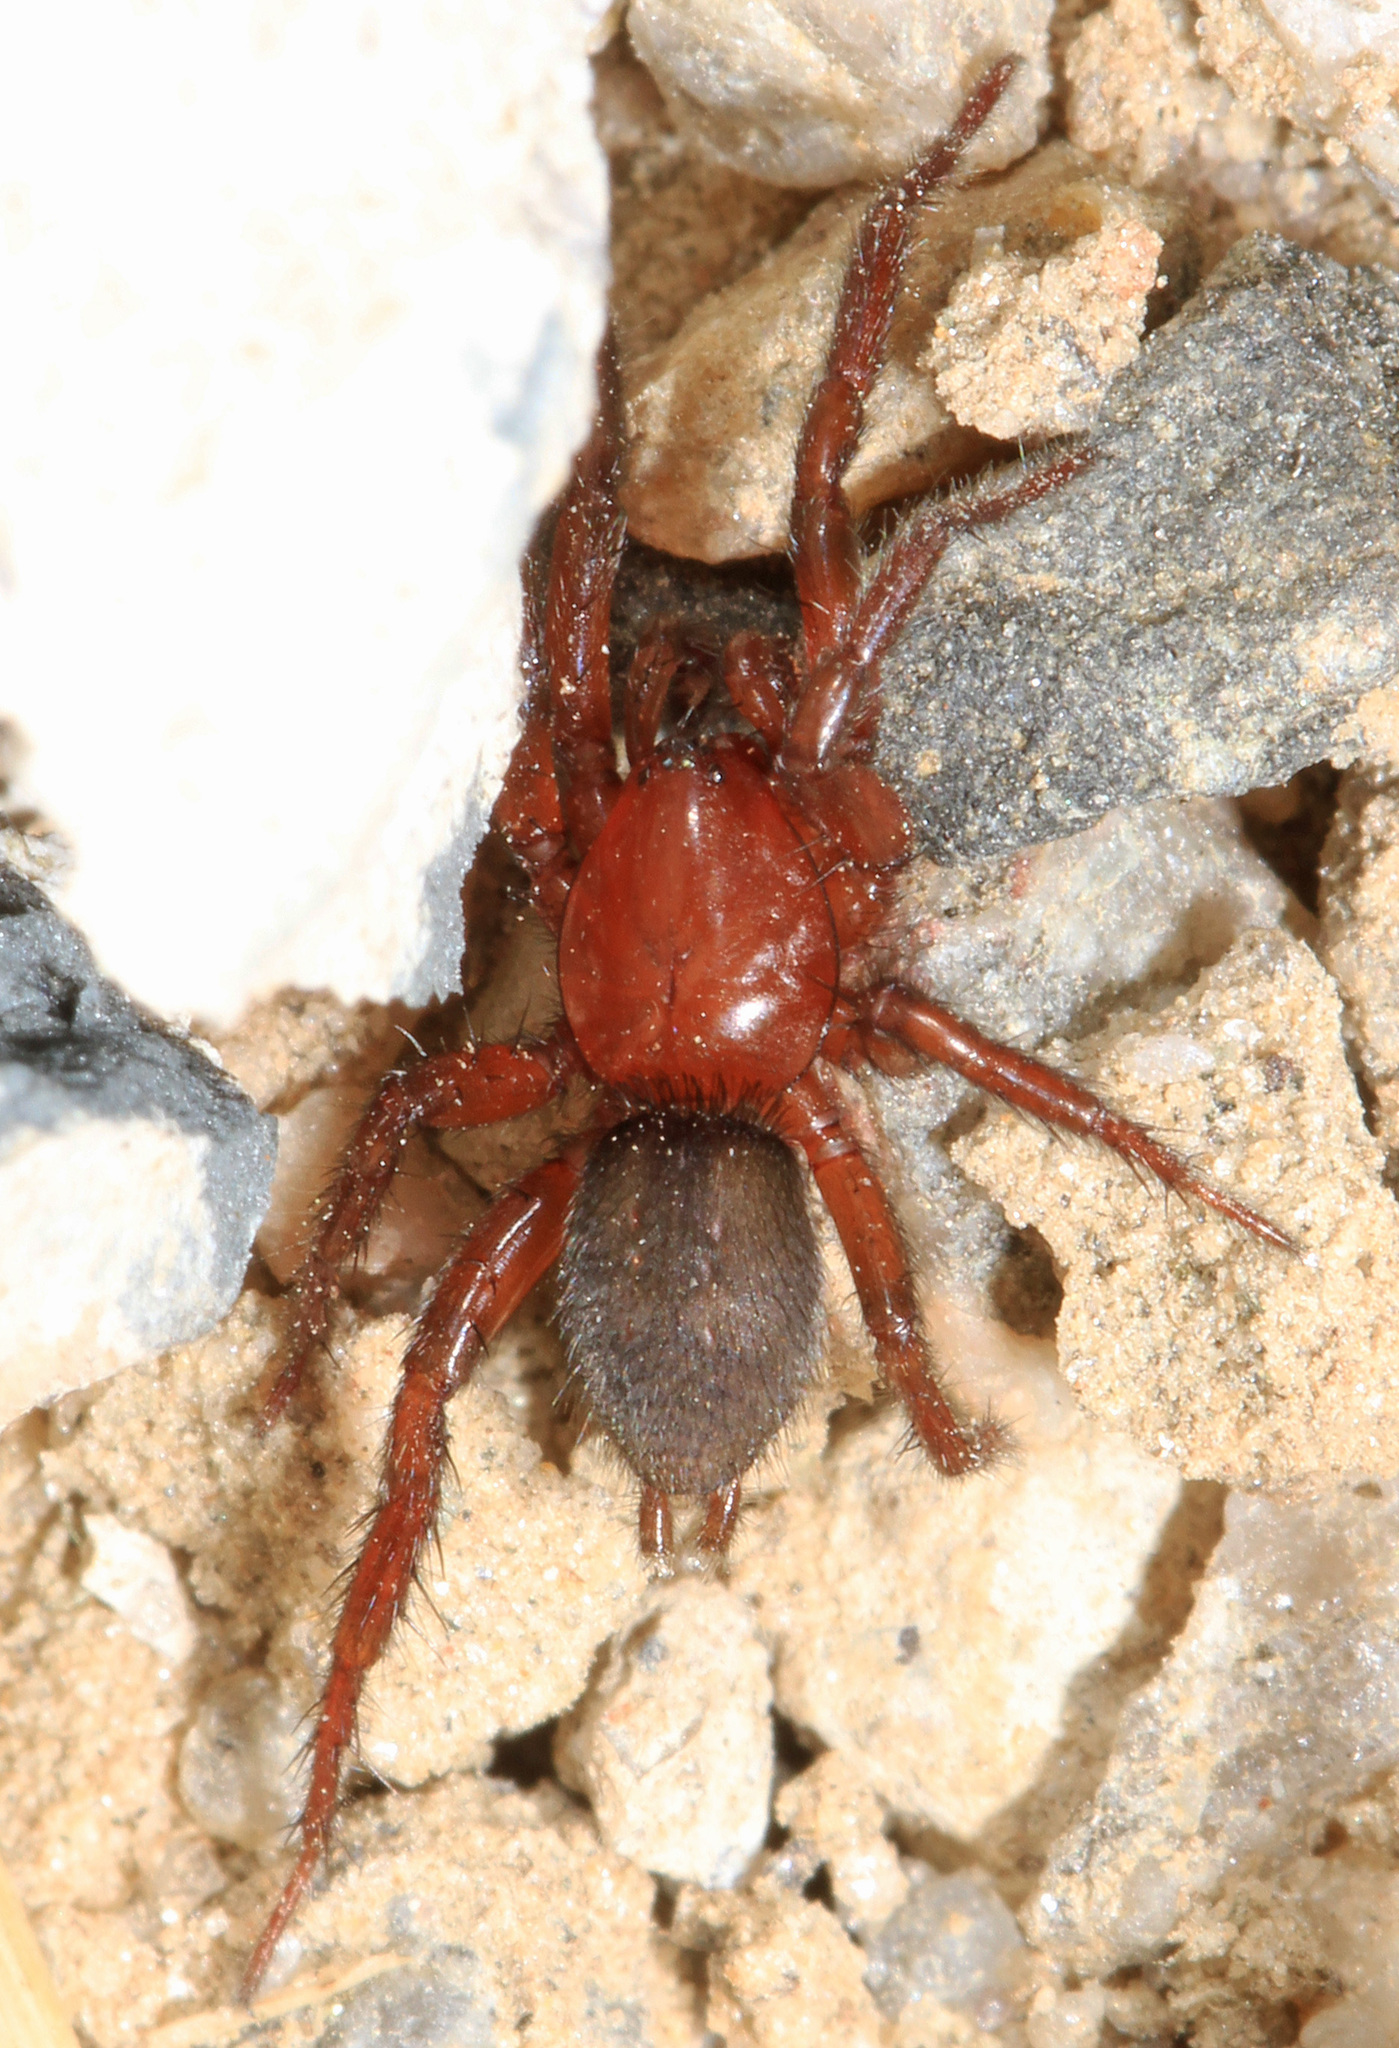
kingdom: Animalia
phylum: Arthropoda
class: Arachnida
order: Araneae
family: Gnaphosidae
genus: Gnaphosa
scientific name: Gnaphosa sericata
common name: Ground spiders
